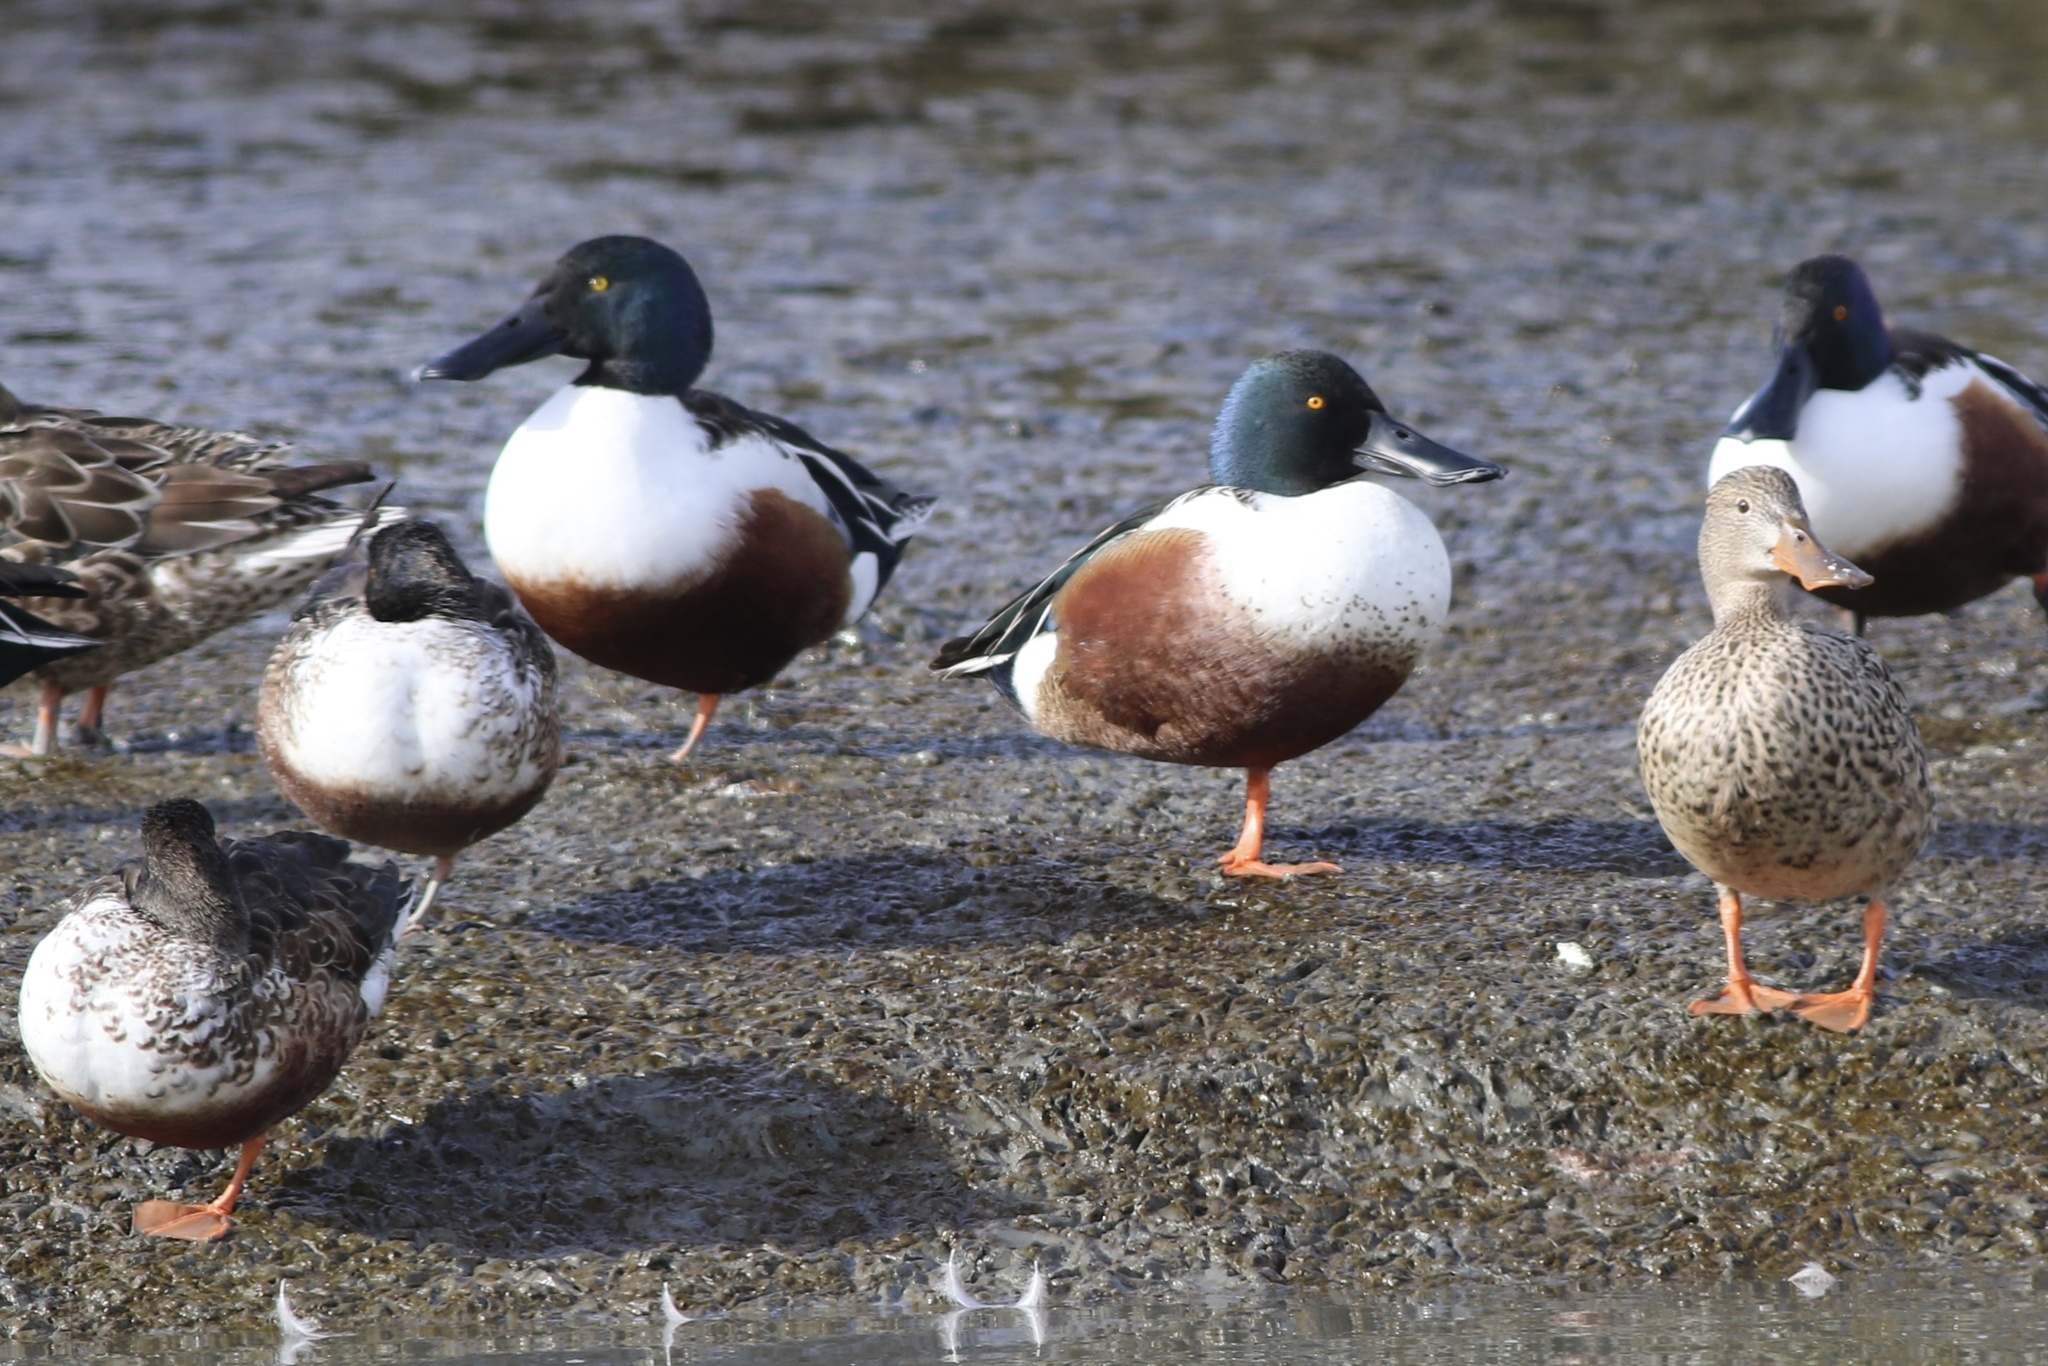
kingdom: Animalia
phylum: Chordata
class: Aves
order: Anseriformes
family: Anatidae
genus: Spatula
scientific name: Spatula clypeata
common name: Northern shoveler
